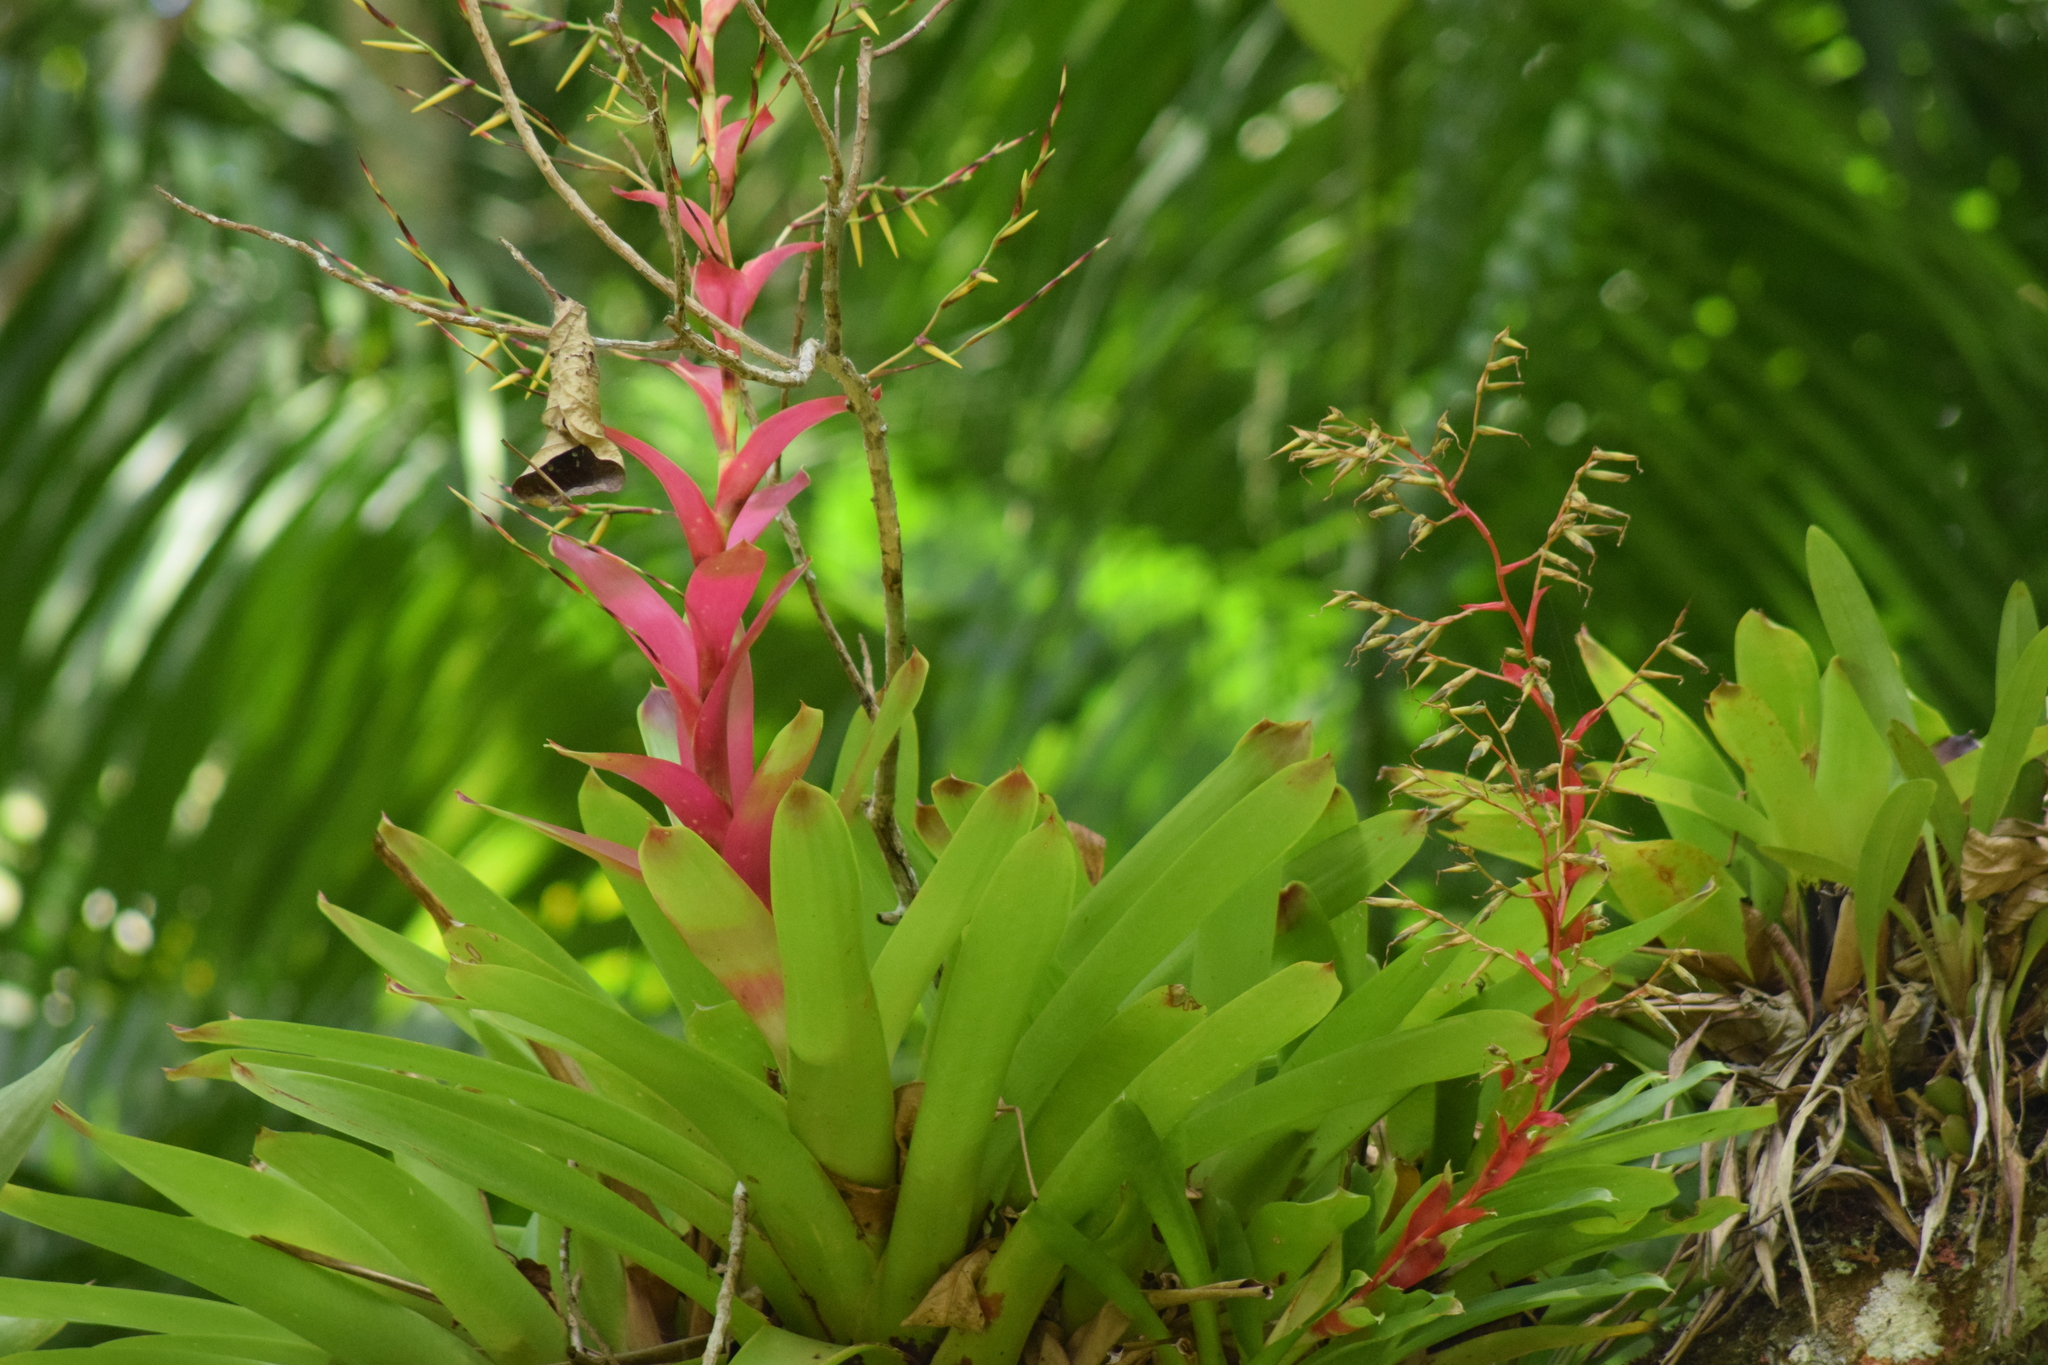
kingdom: Plantae
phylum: Tracheophyta
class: Liliopsida
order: Poales
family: Bromeliaceae
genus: Vriesea
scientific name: Vriesea philippocoburgi
